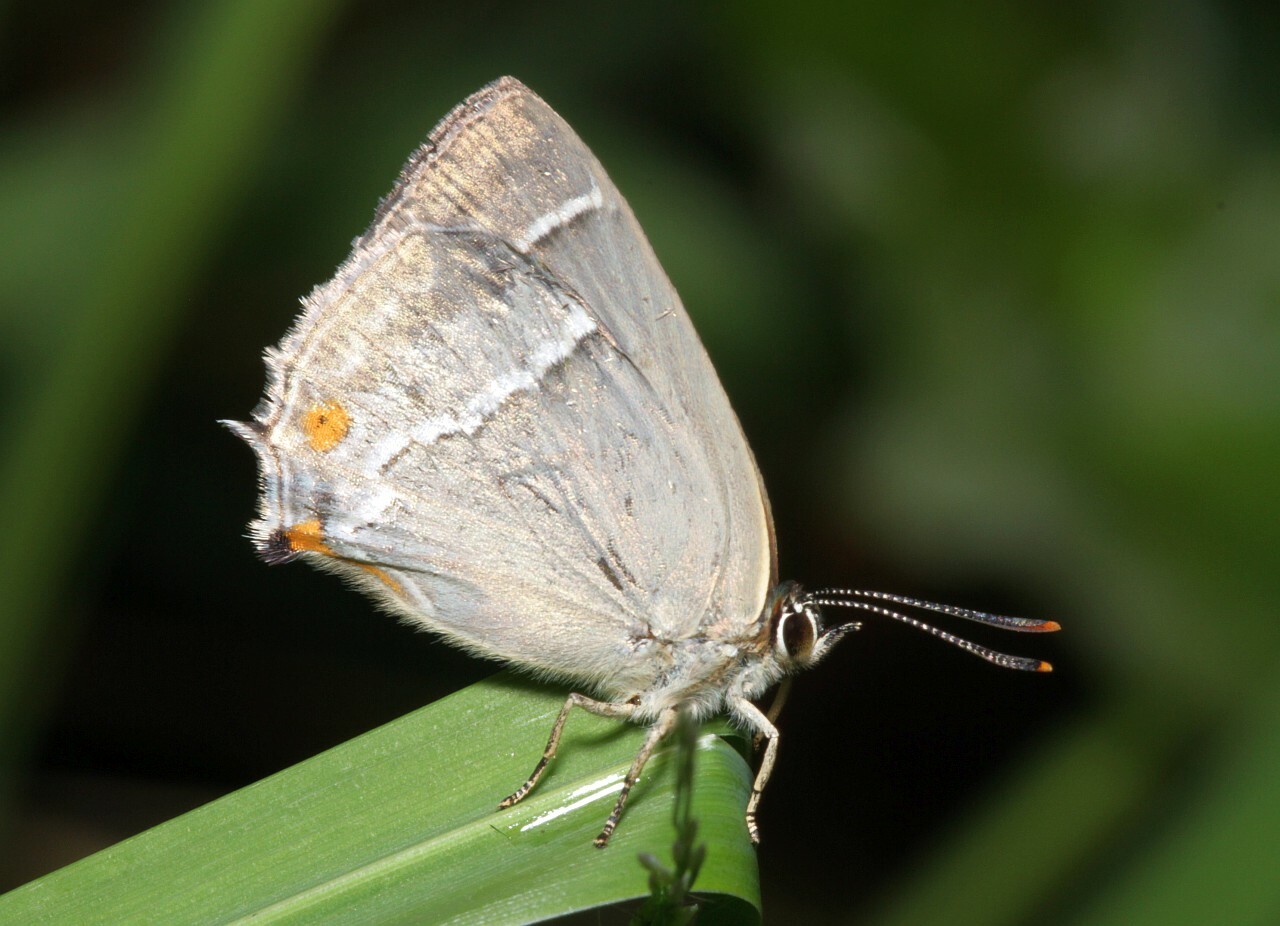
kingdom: Animalia
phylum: Arthropoda
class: Insecta
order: Lepidoptera
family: Lycaenidae
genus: Quercusia
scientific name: Quercusia quercus
